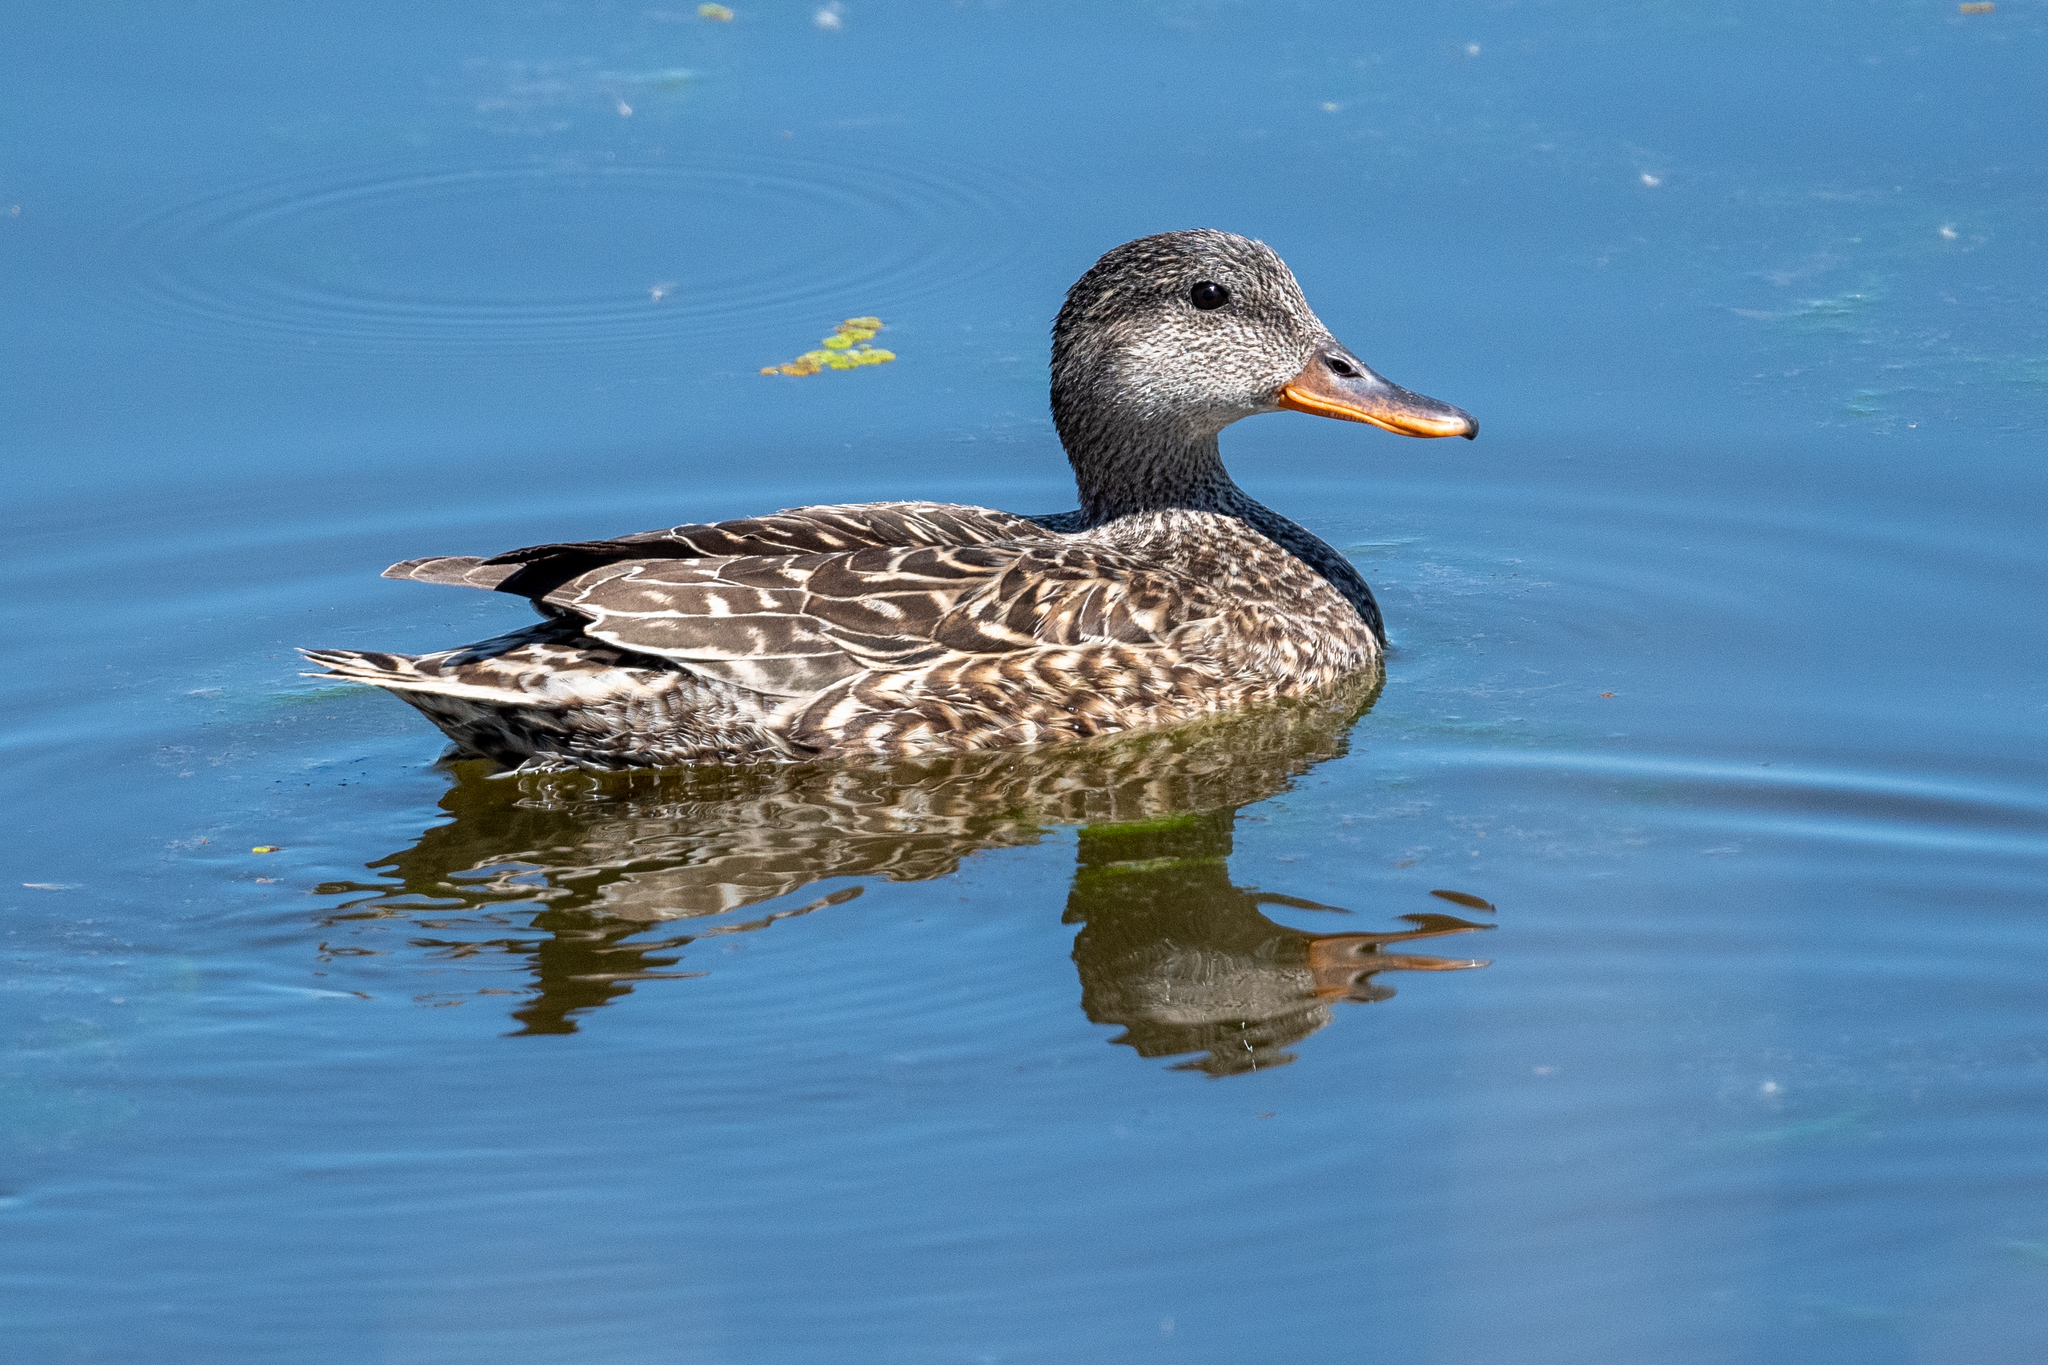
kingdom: Animalia
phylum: Chordata
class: Aves
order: Anseriformes
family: Anatidae
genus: Mareca
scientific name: Mareca strepera
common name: Gadwall
